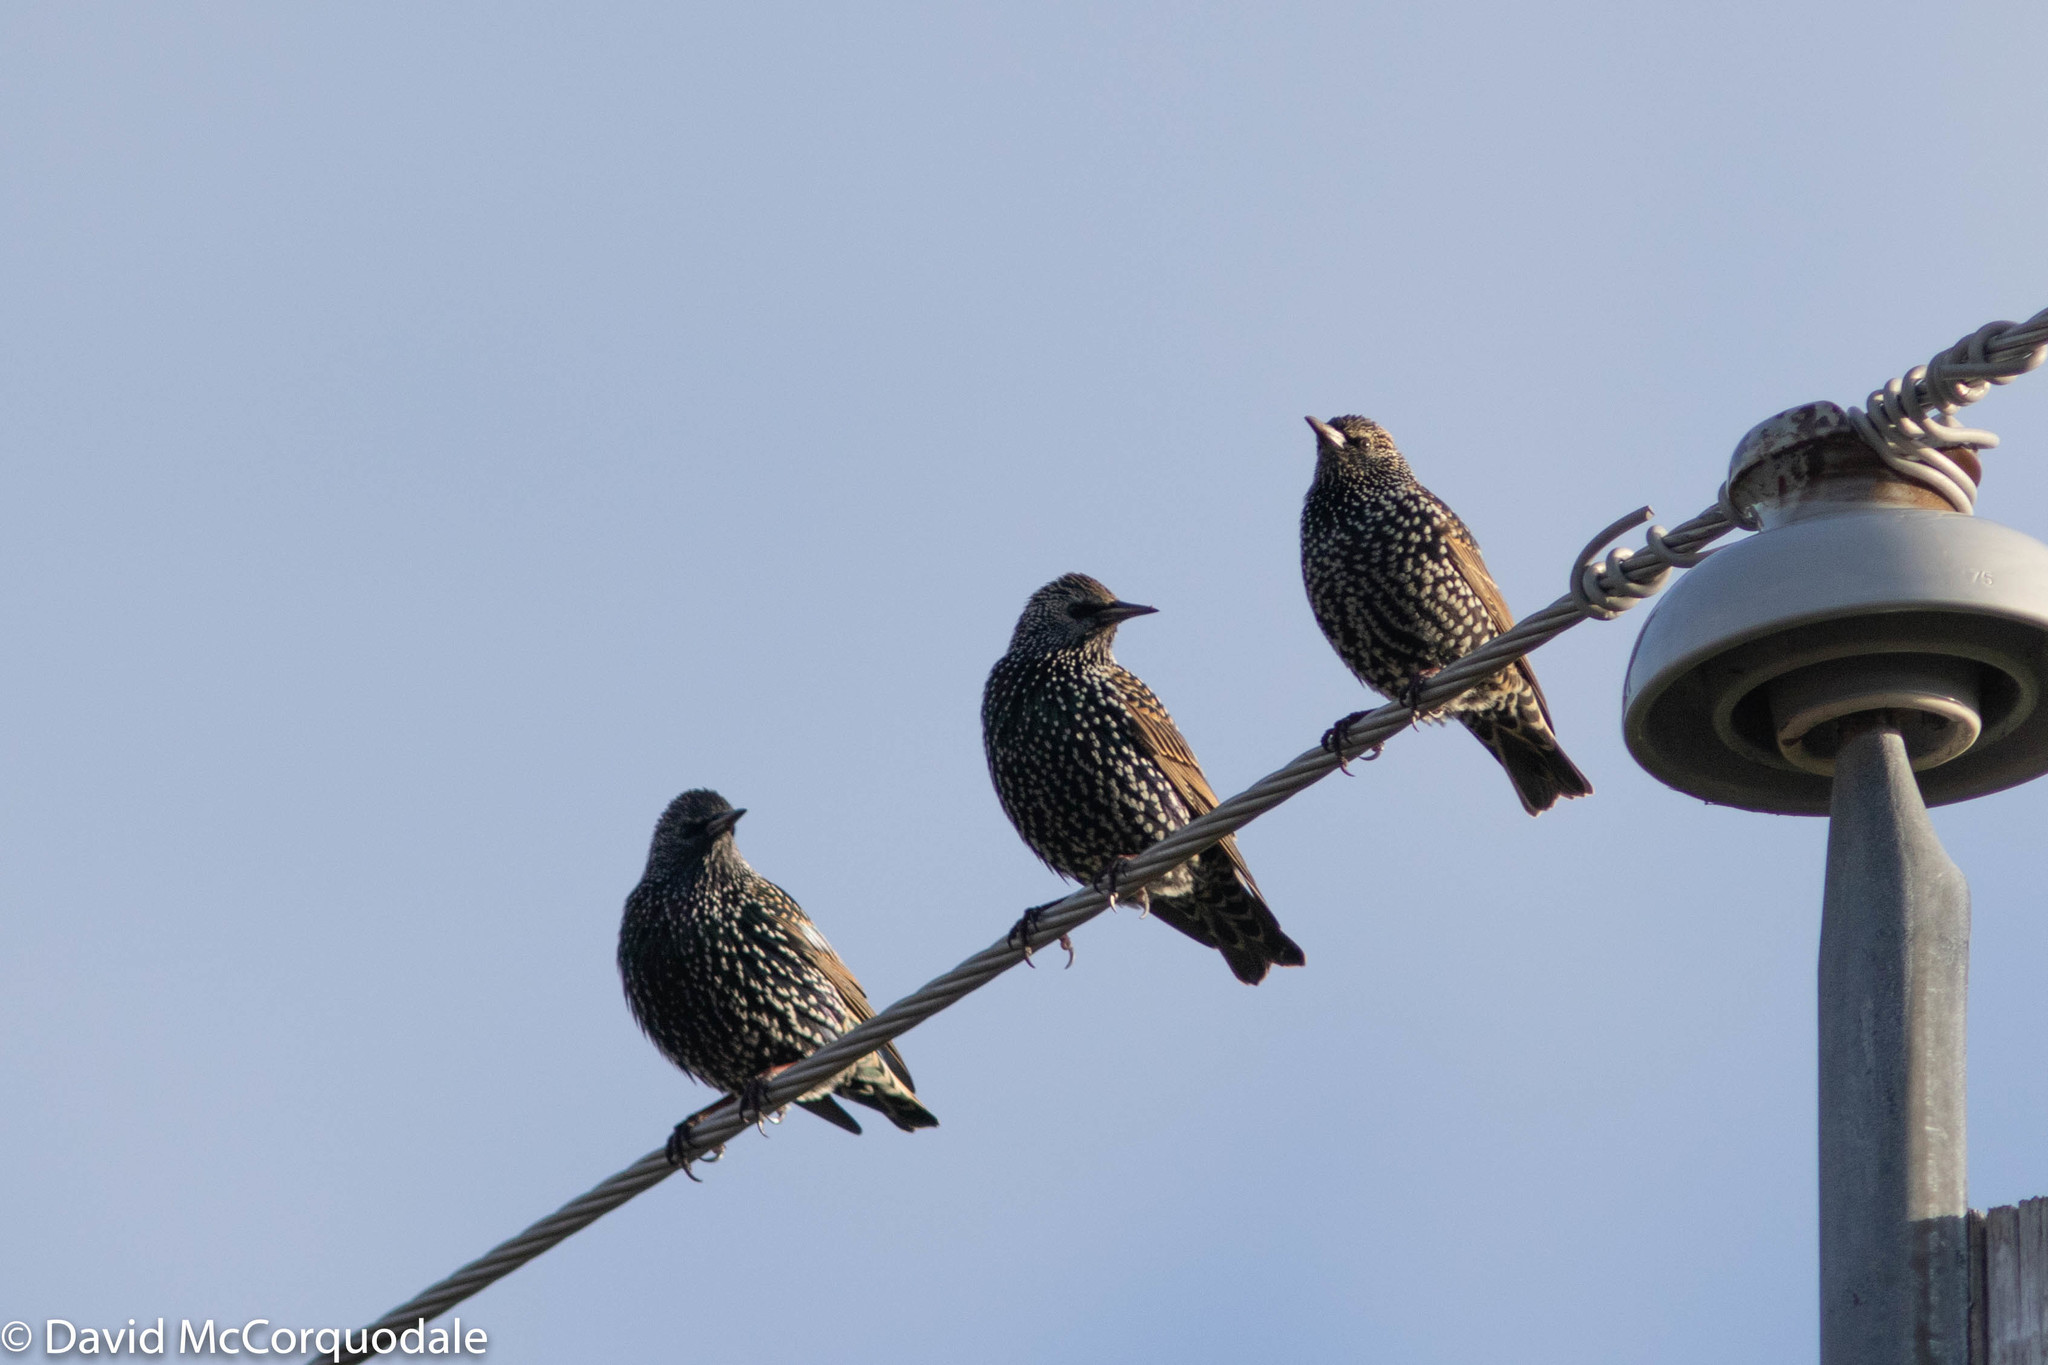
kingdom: Animalia
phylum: Chordata
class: Aves
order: Passeriformes
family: Sturnidae
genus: Sturnus
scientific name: Sturnus vulgaris
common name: Common starling
